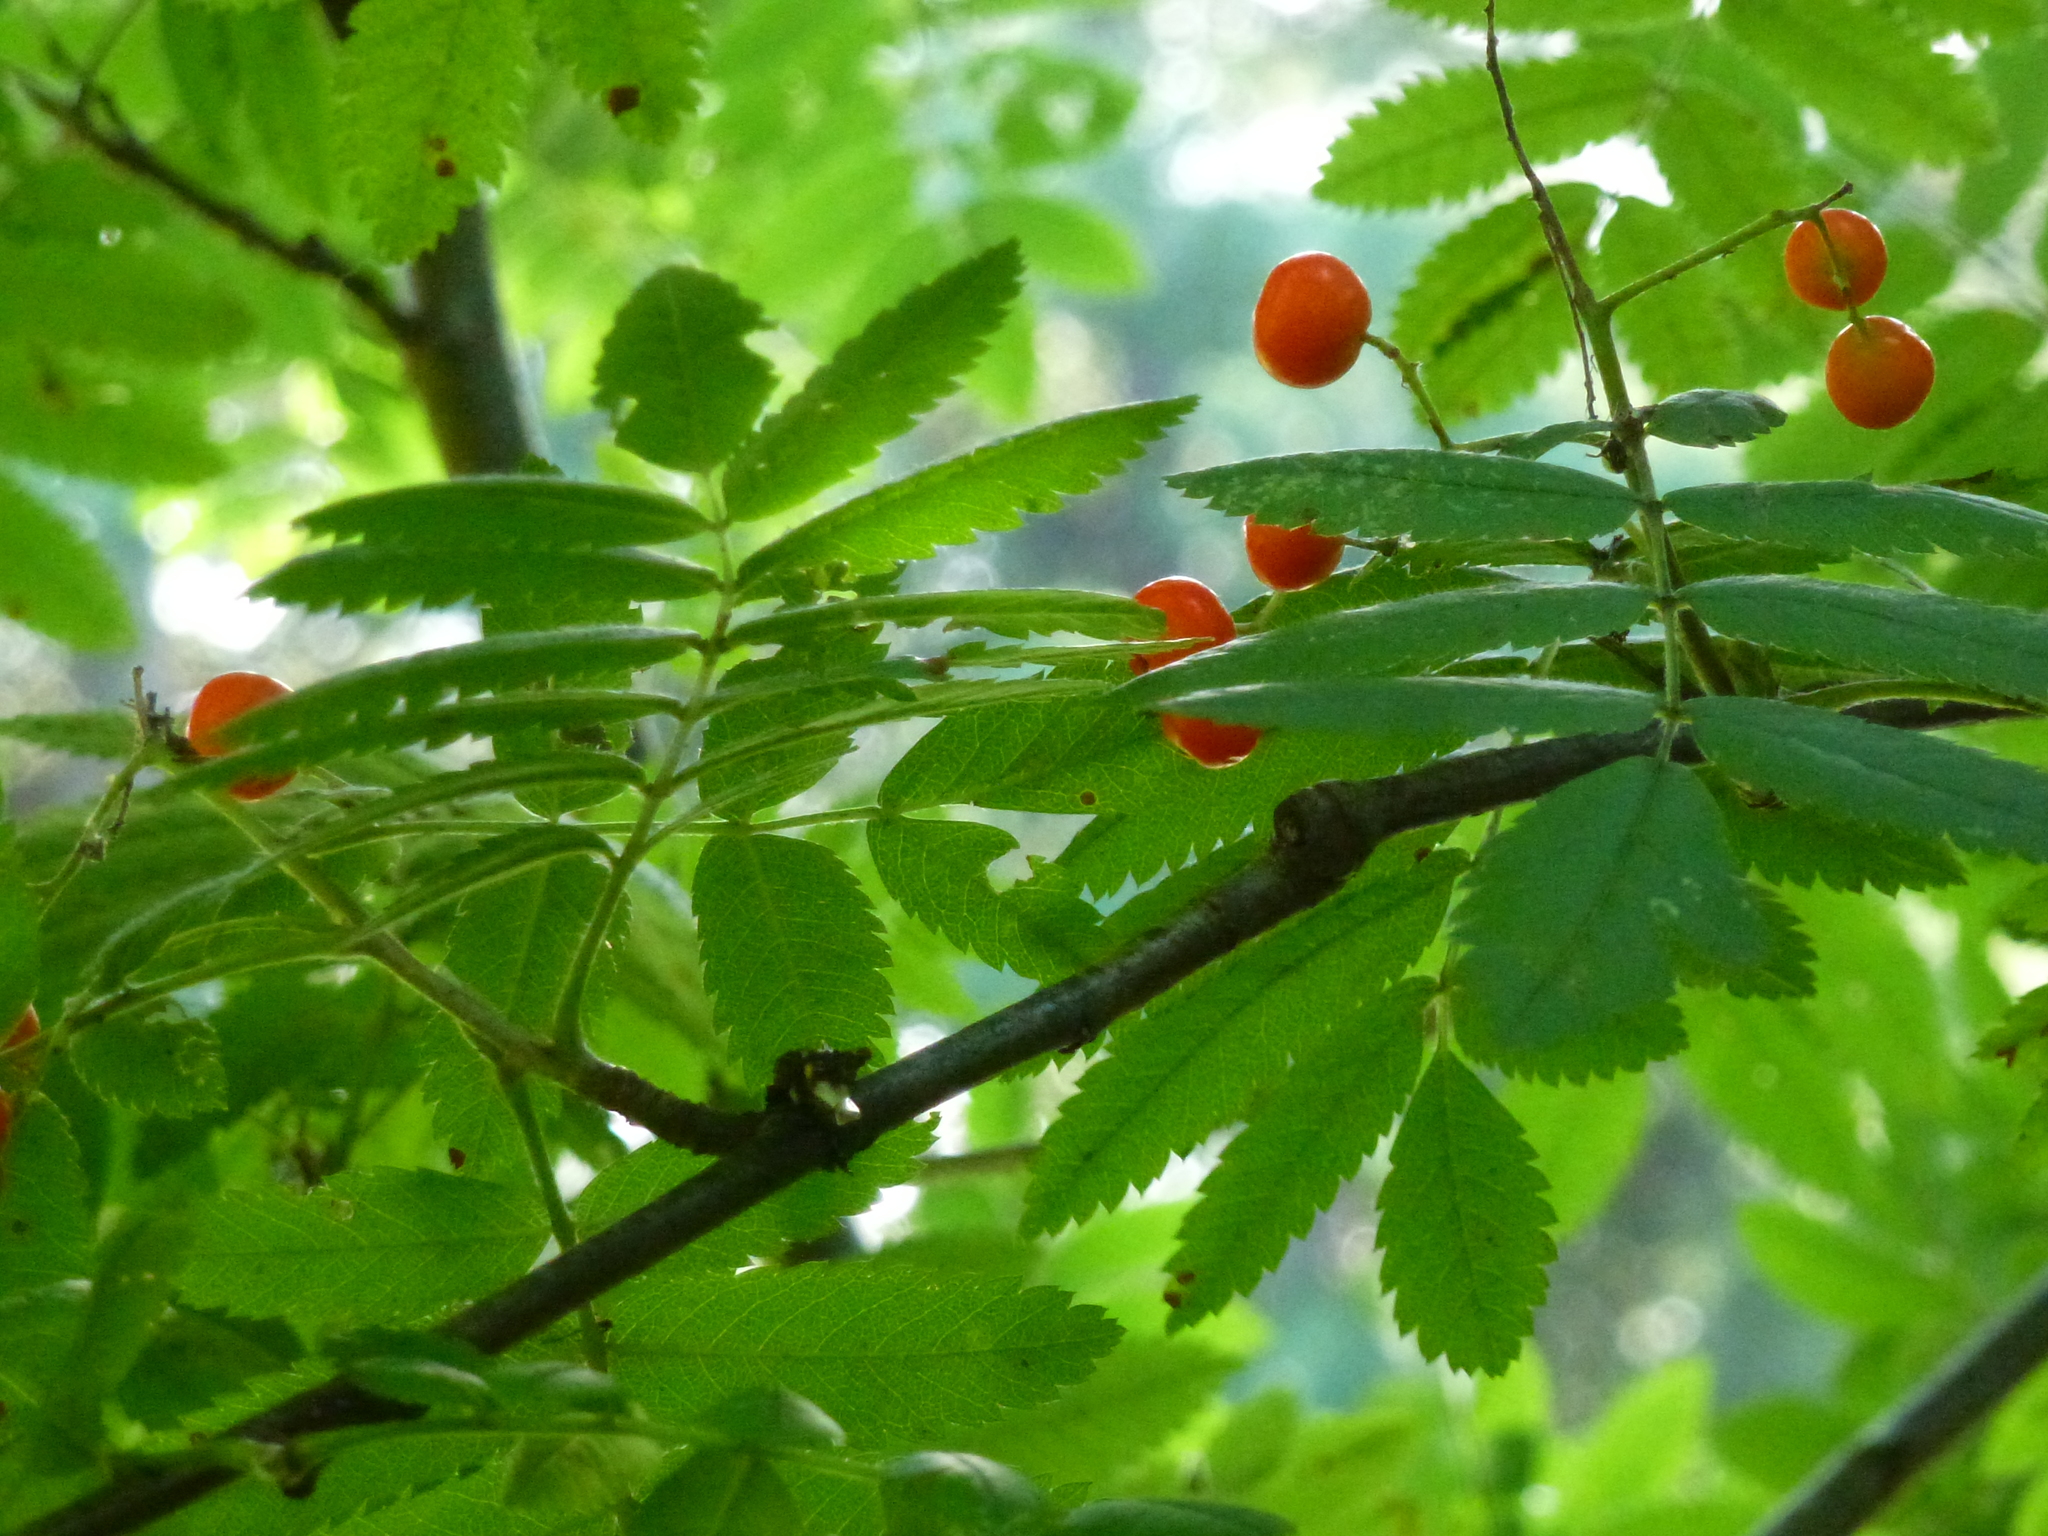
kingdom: Plantae
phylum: Tracheophyta
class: Magnoliopsida
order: Rosales
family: Rosaceae
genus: Sorbus
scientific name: Sorbus aucuparia
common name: Rowan
